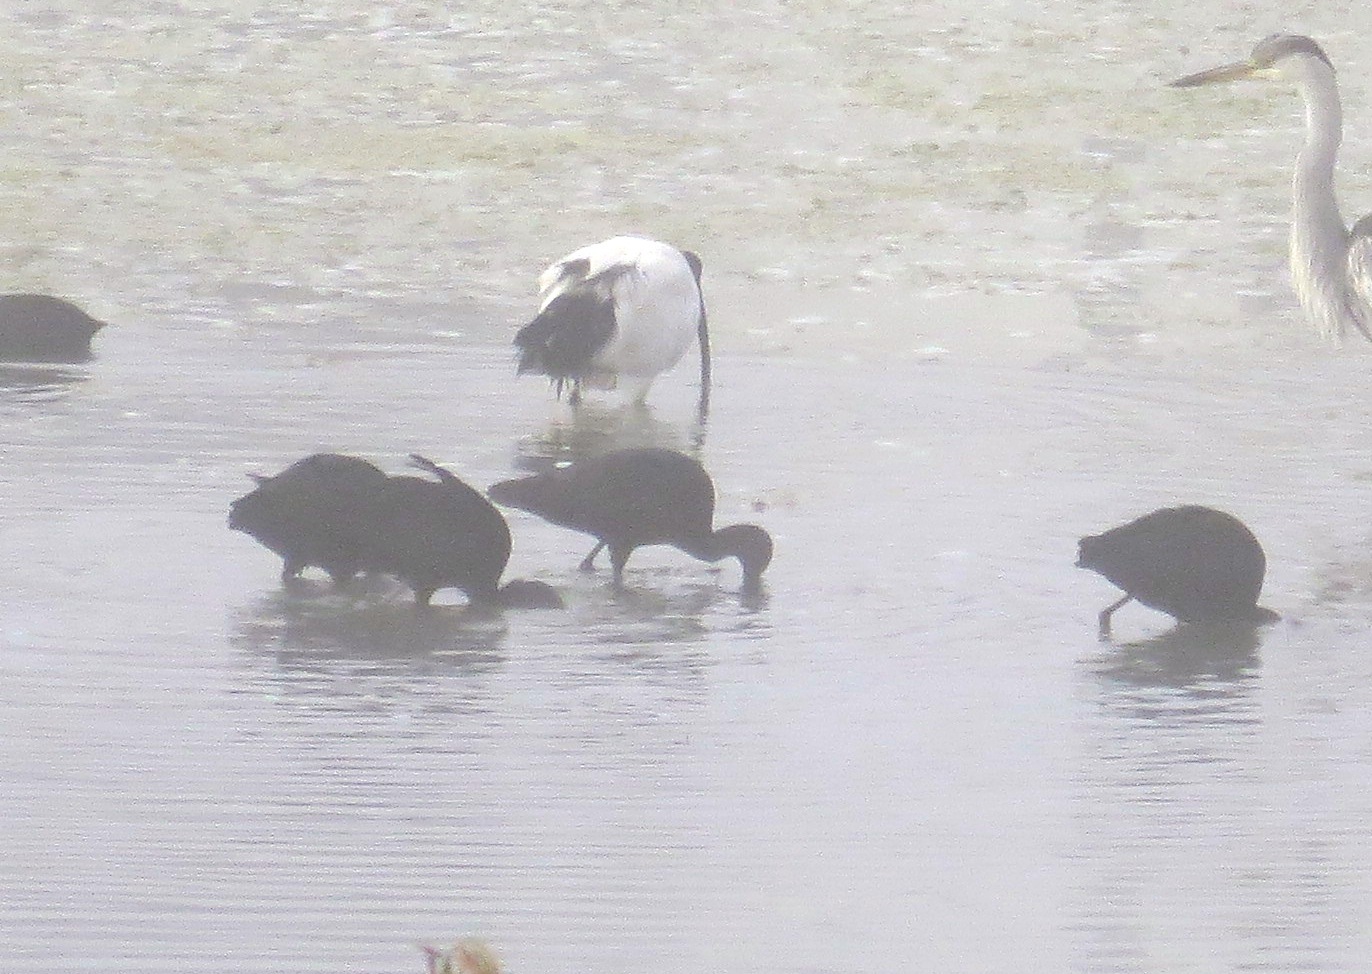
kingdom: Animalia
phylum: Chordata
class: Aves
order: Pelecaniformes
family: Threskiornithidae
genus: Plegadis
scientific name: Plegadis falcinellus
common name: Glossy ibis
